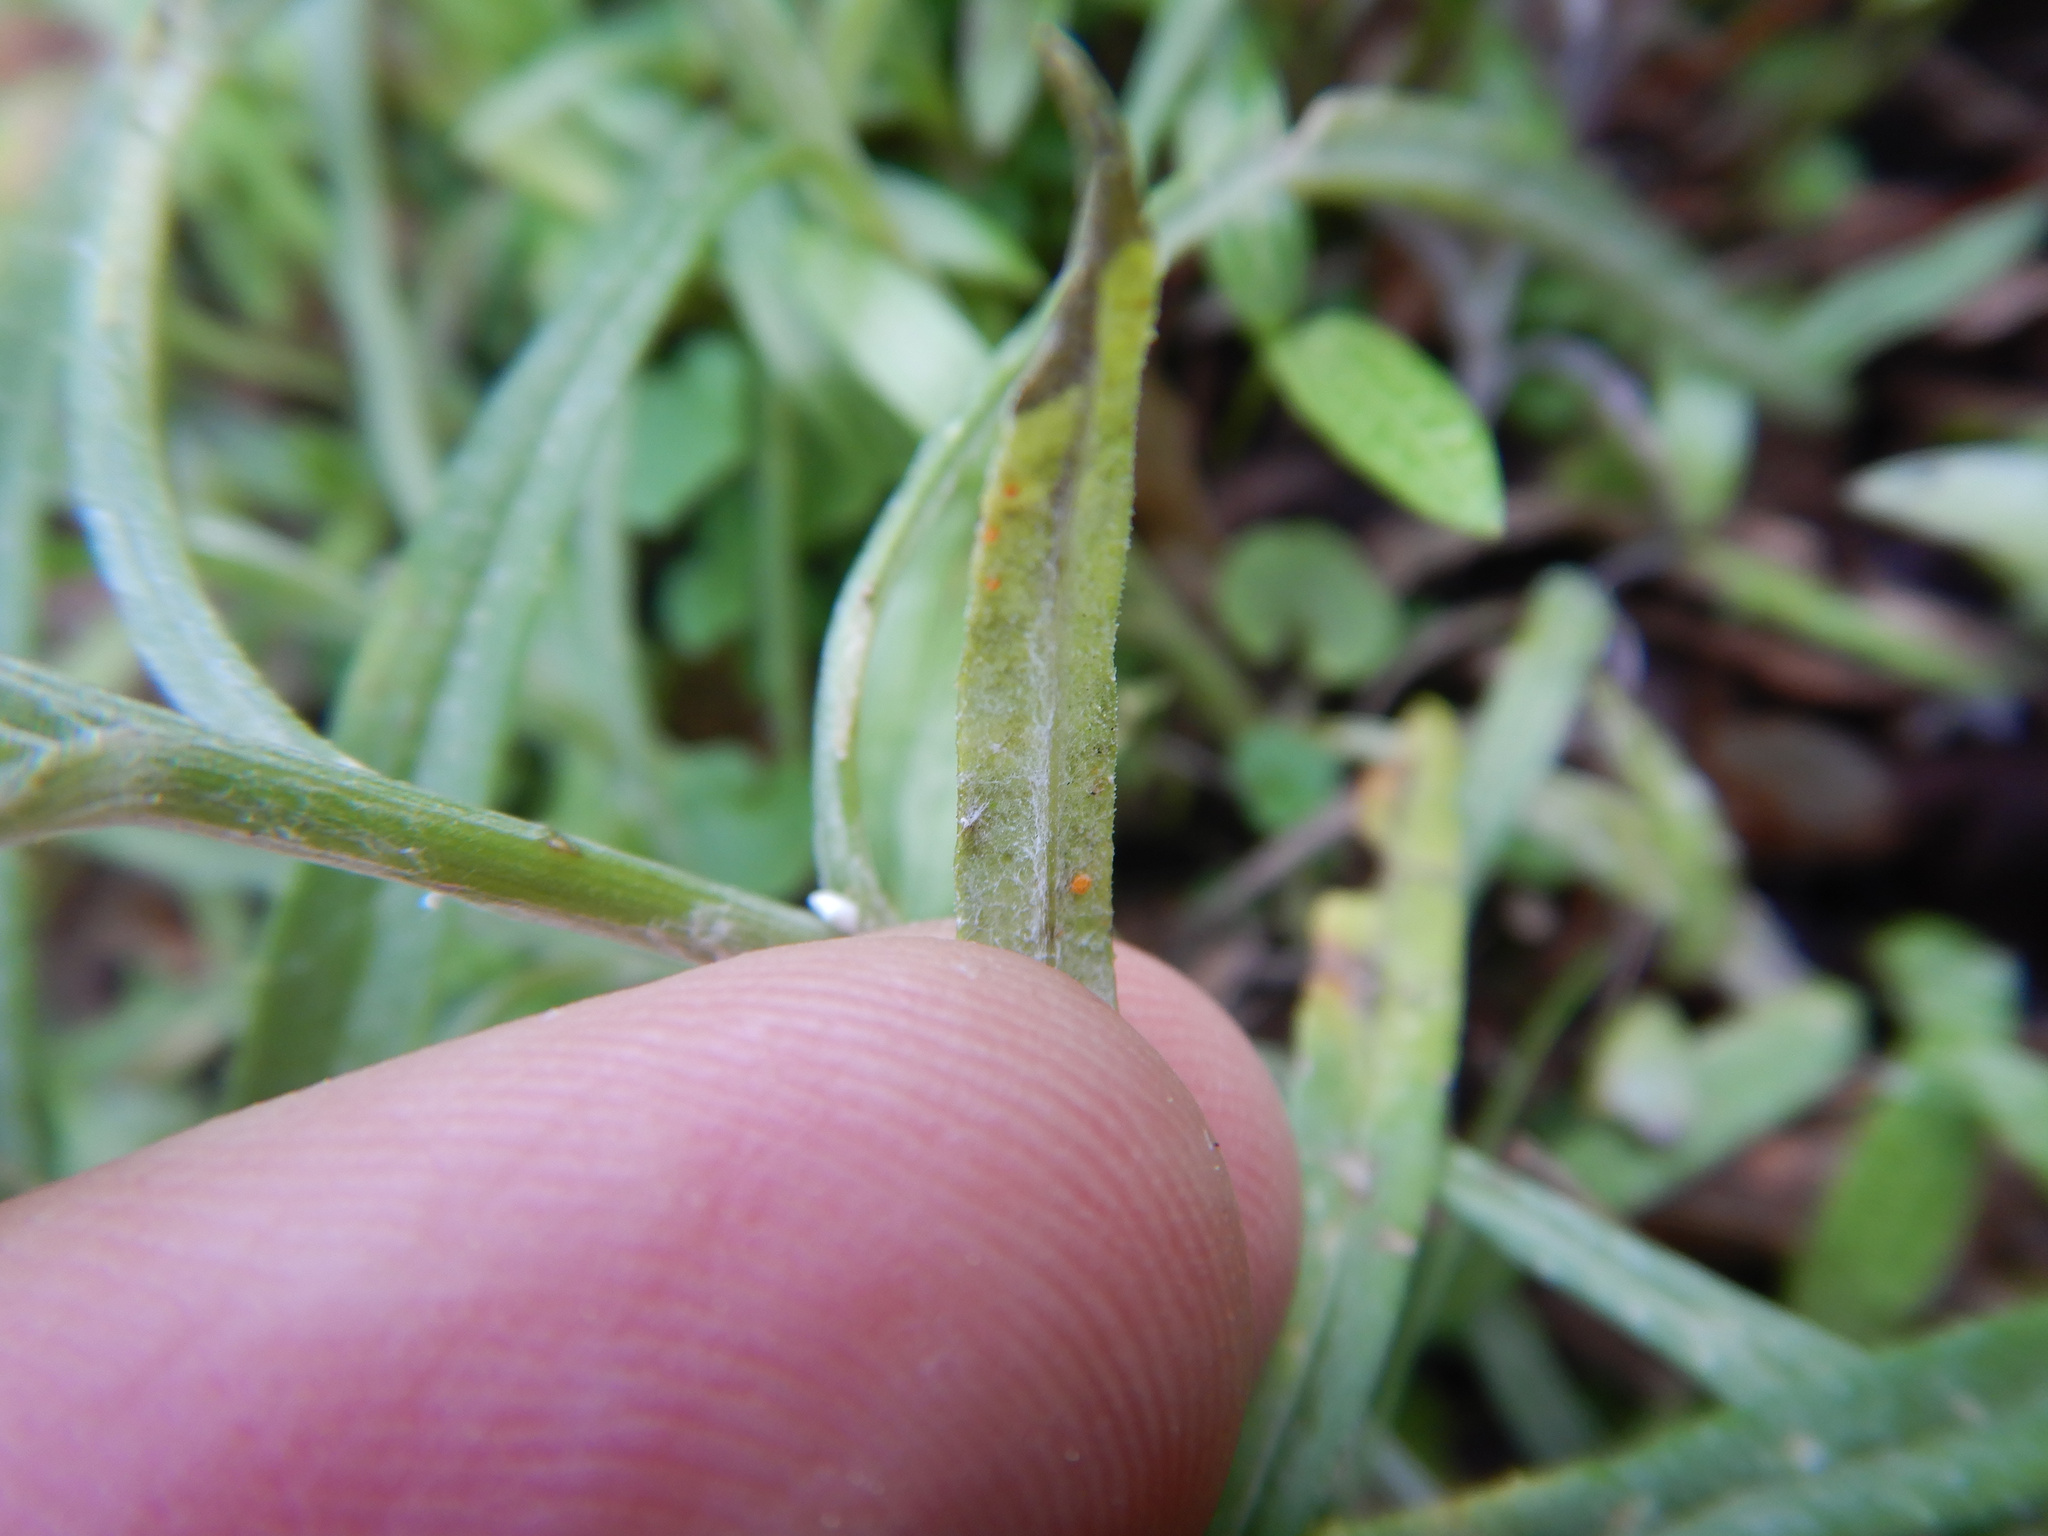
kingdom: Fungi
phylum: Basidiomycota
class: Pucciniomycetes
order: Pucciniales
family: Coleosporiaceae
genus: Coleosporium
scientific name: Coleosporium tussilaginis
